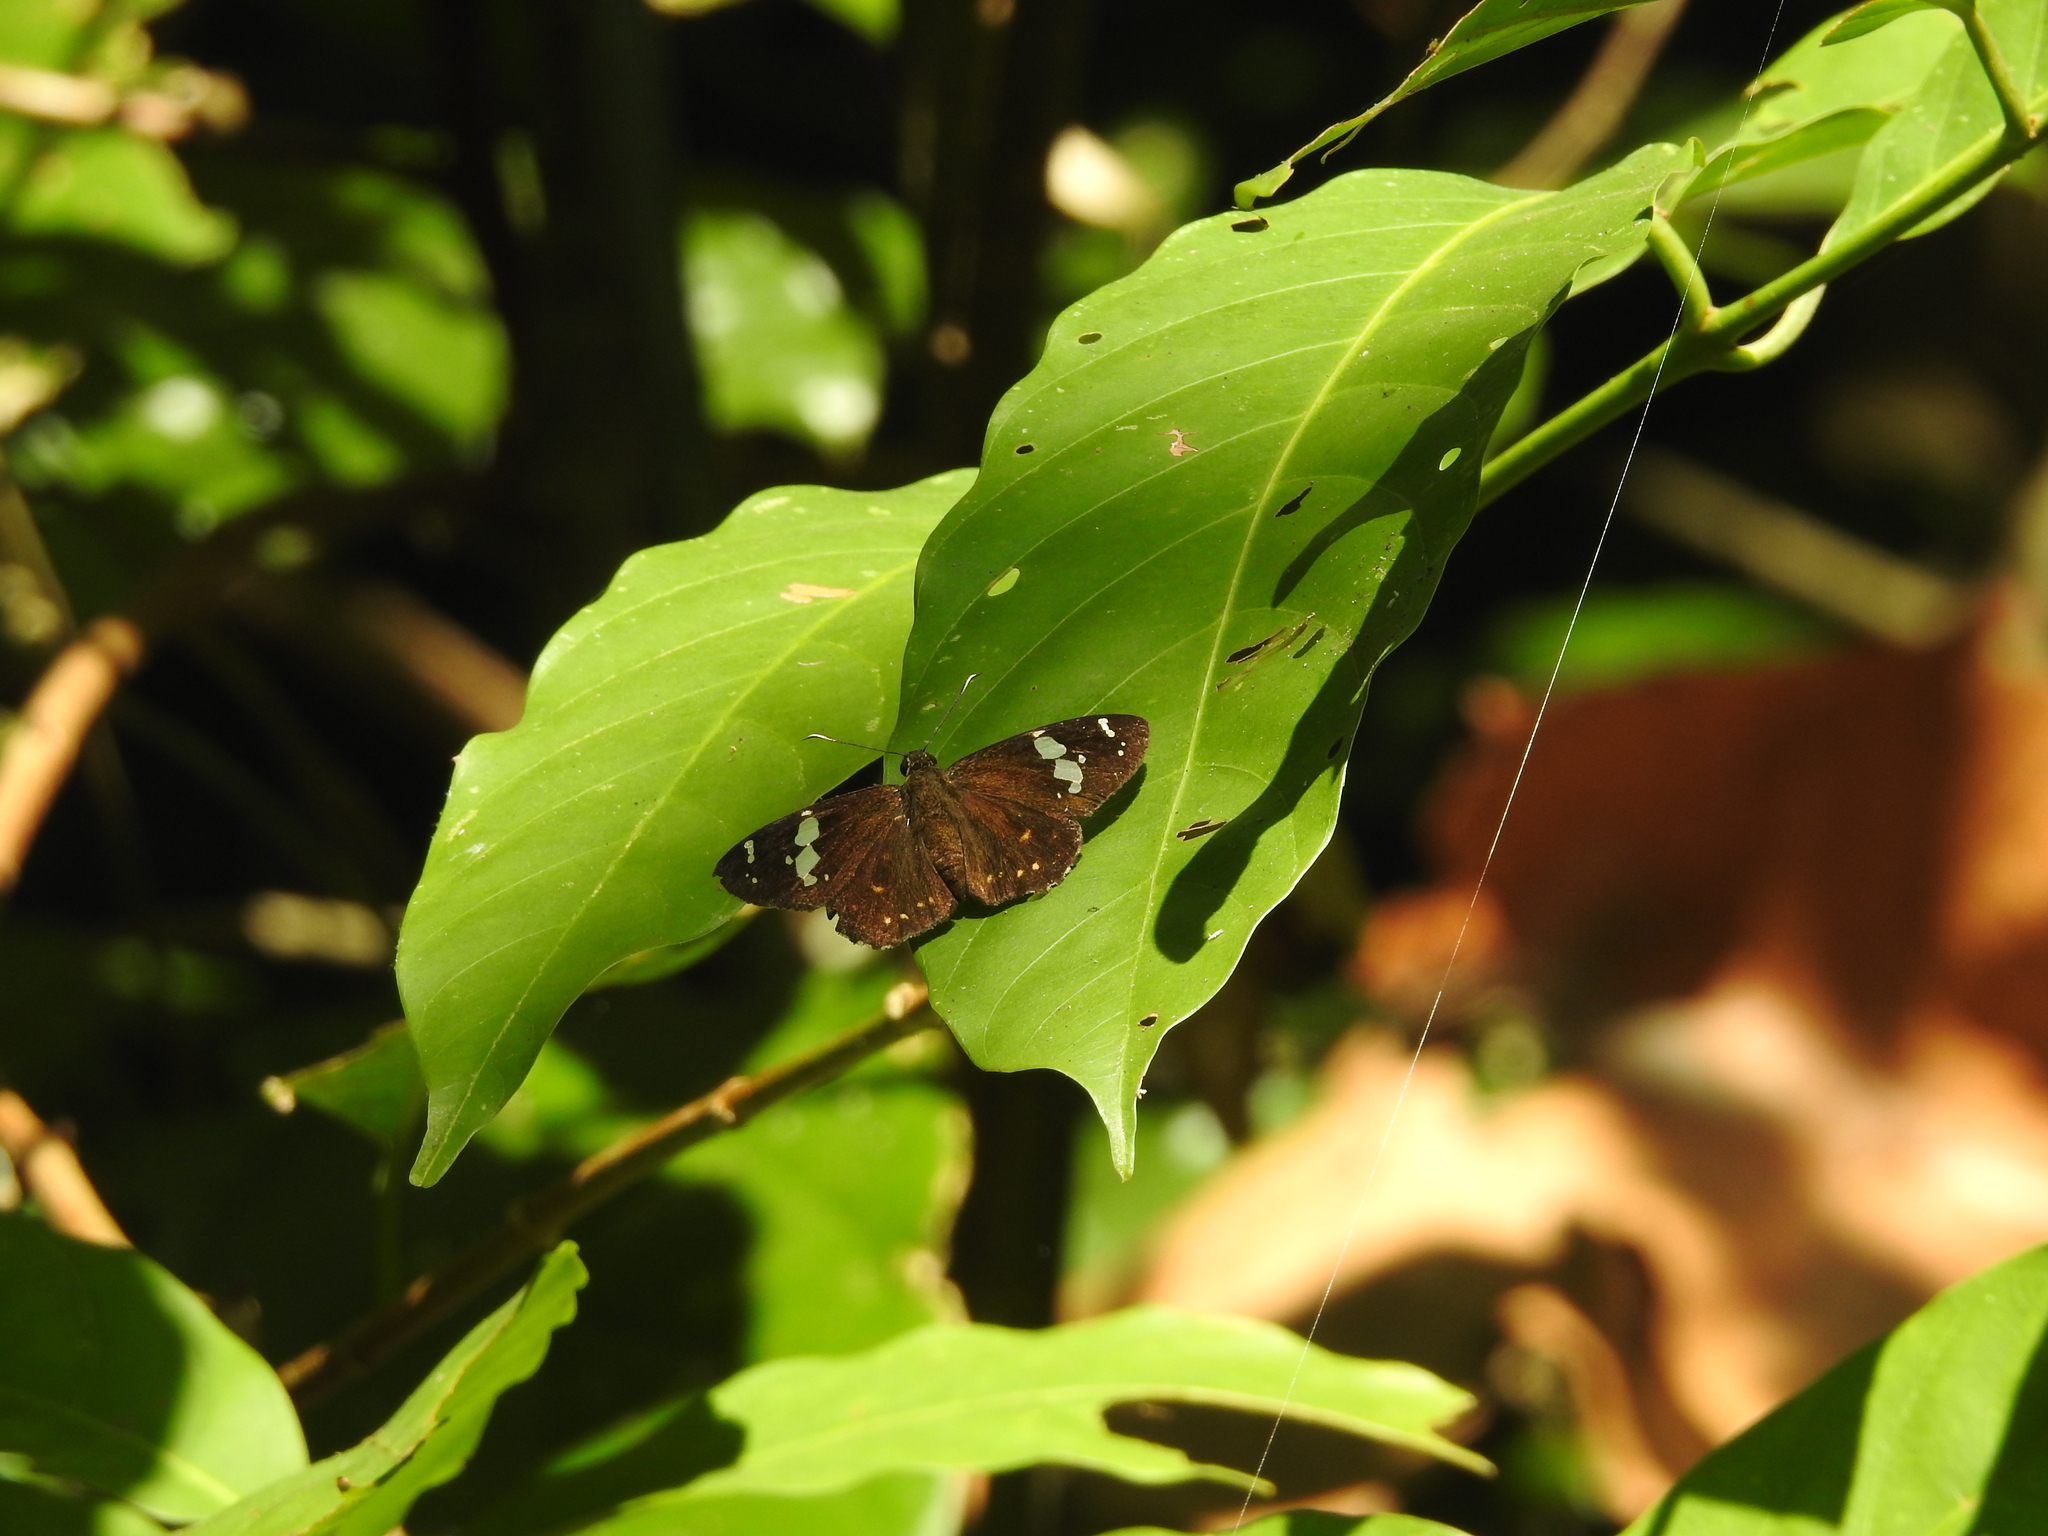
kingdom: Animalia
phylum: Arthropoda
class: Insecta
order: Lepidoptera
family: Hesperiidae
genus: Celaenorrhinus
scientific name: Celaenorrhinus leucocera
